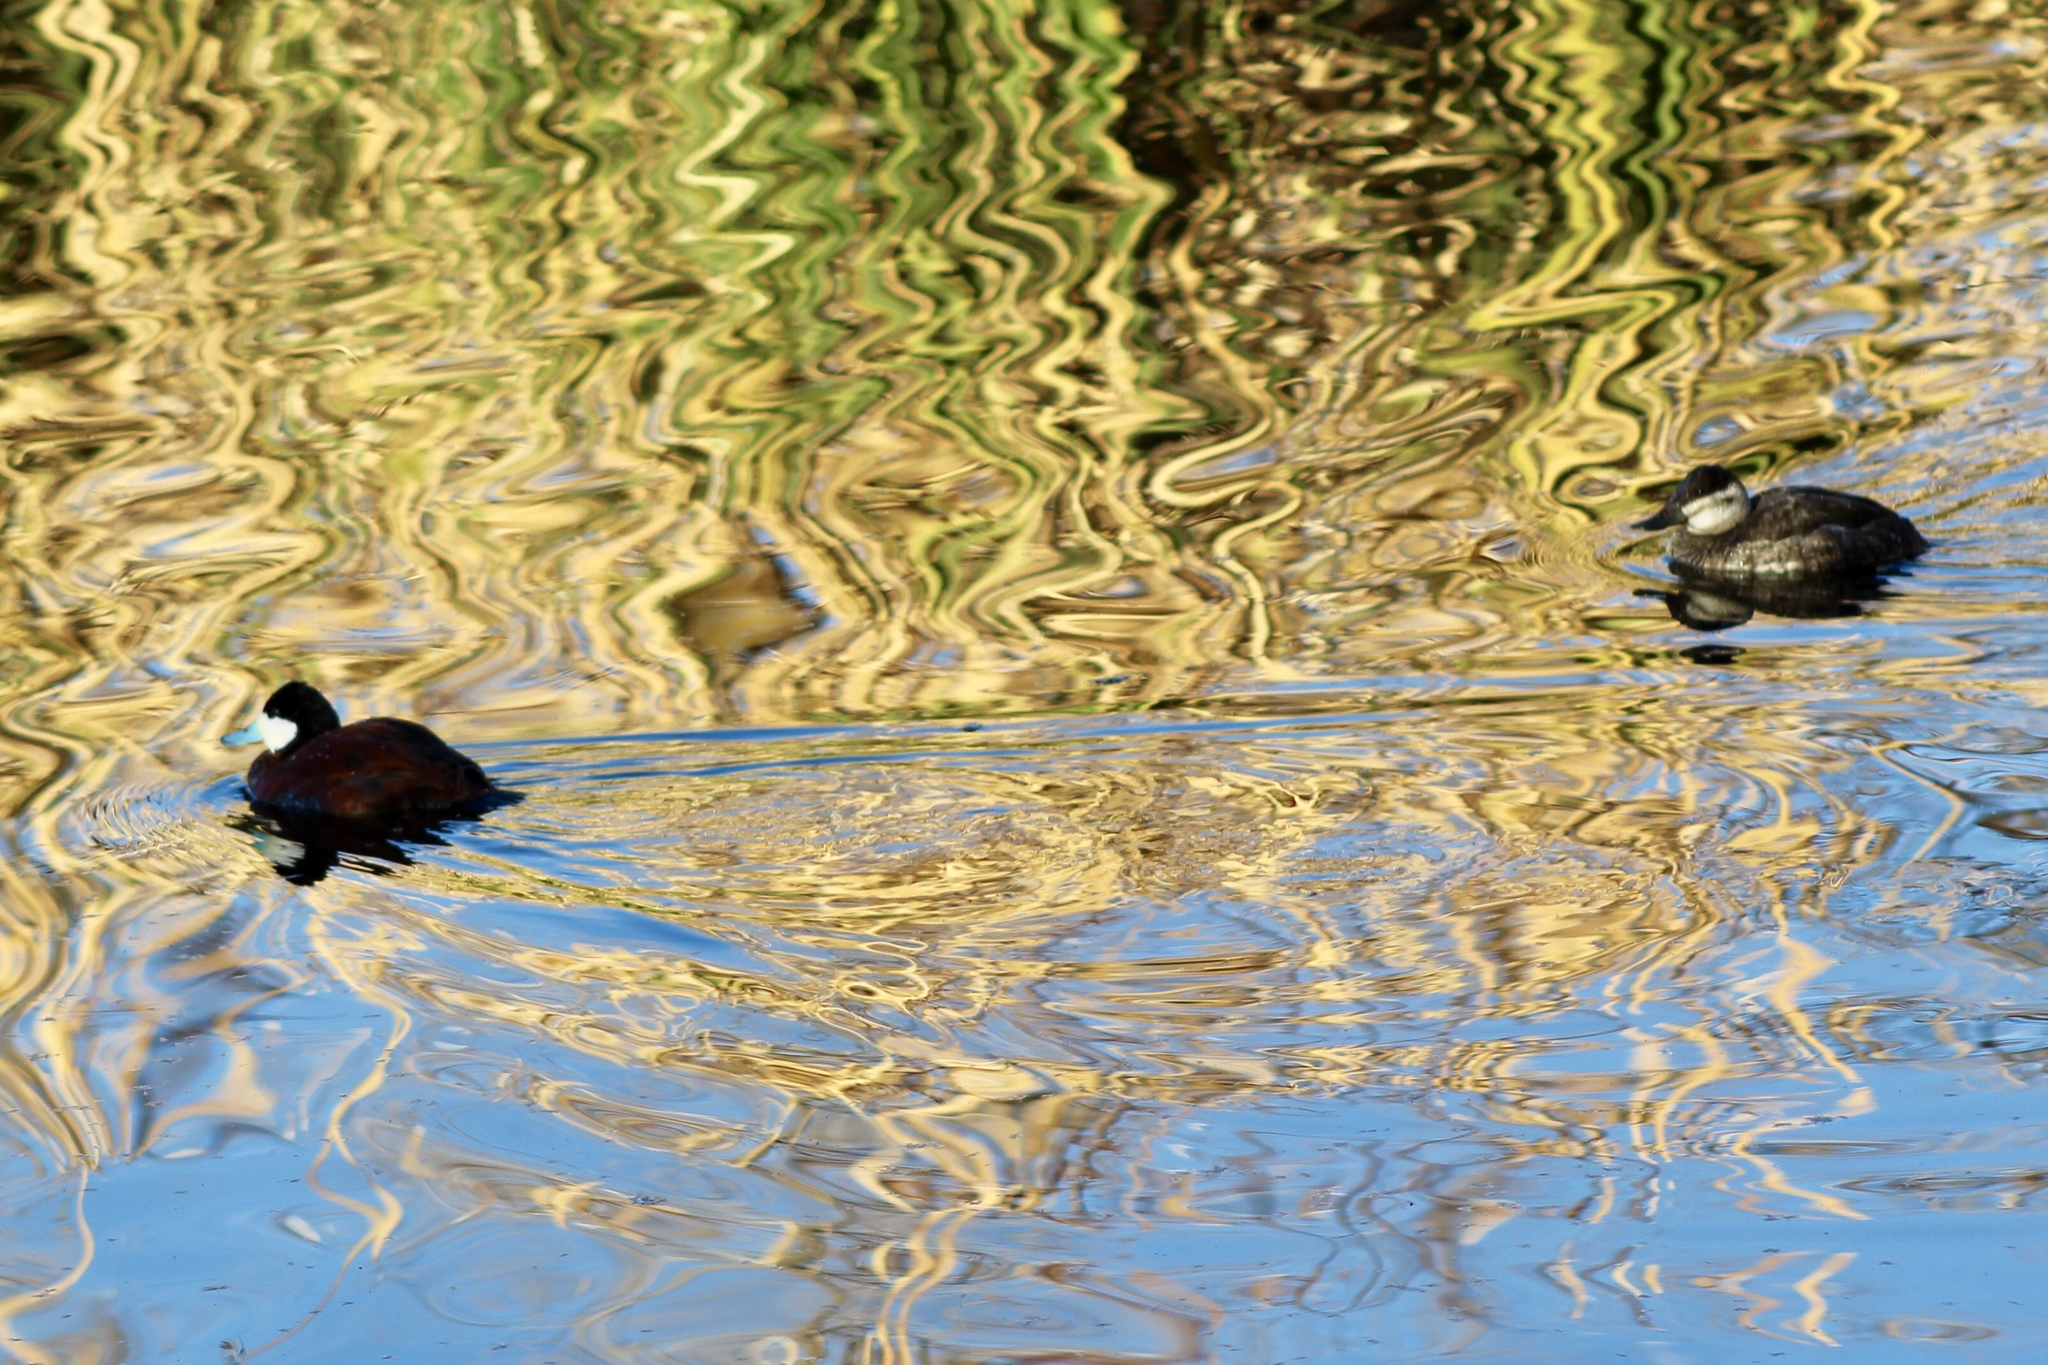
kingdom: Animalia
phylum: Chordata
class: Aves
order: Anseriformes
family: Anatidae
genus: Oxyura
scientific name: Oxyura jamaicensis
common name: Ruddy duck
